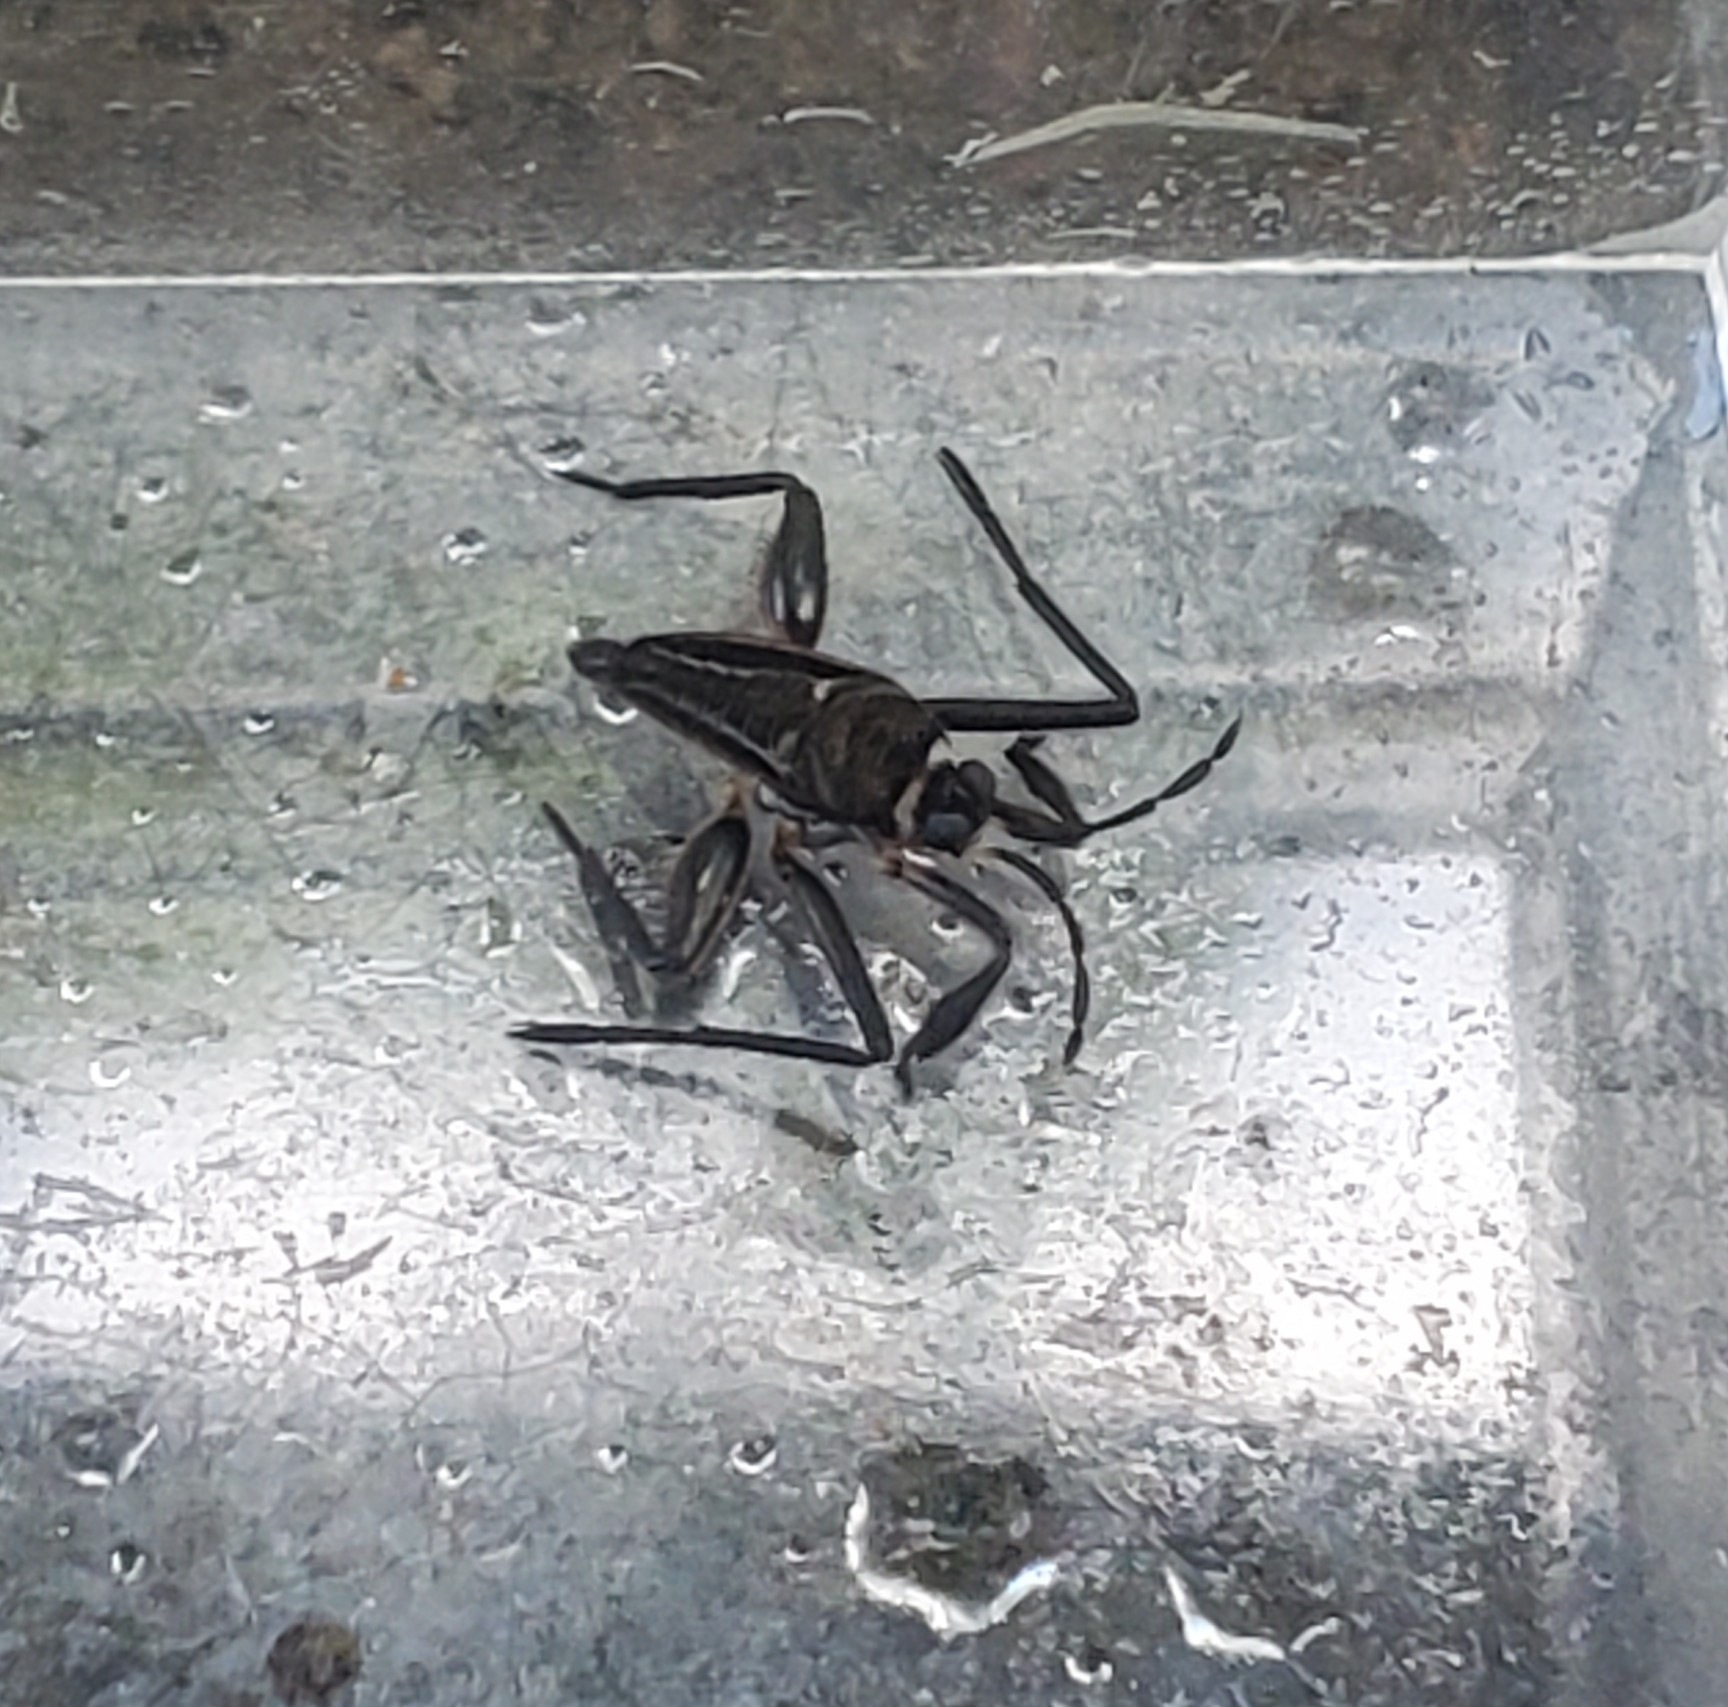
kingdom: Animalia
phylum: Arthropoda
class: Insecta
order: Hemiptera
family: Veliidae
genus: Rhagovelia
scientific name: Rhagovelia antilleana
